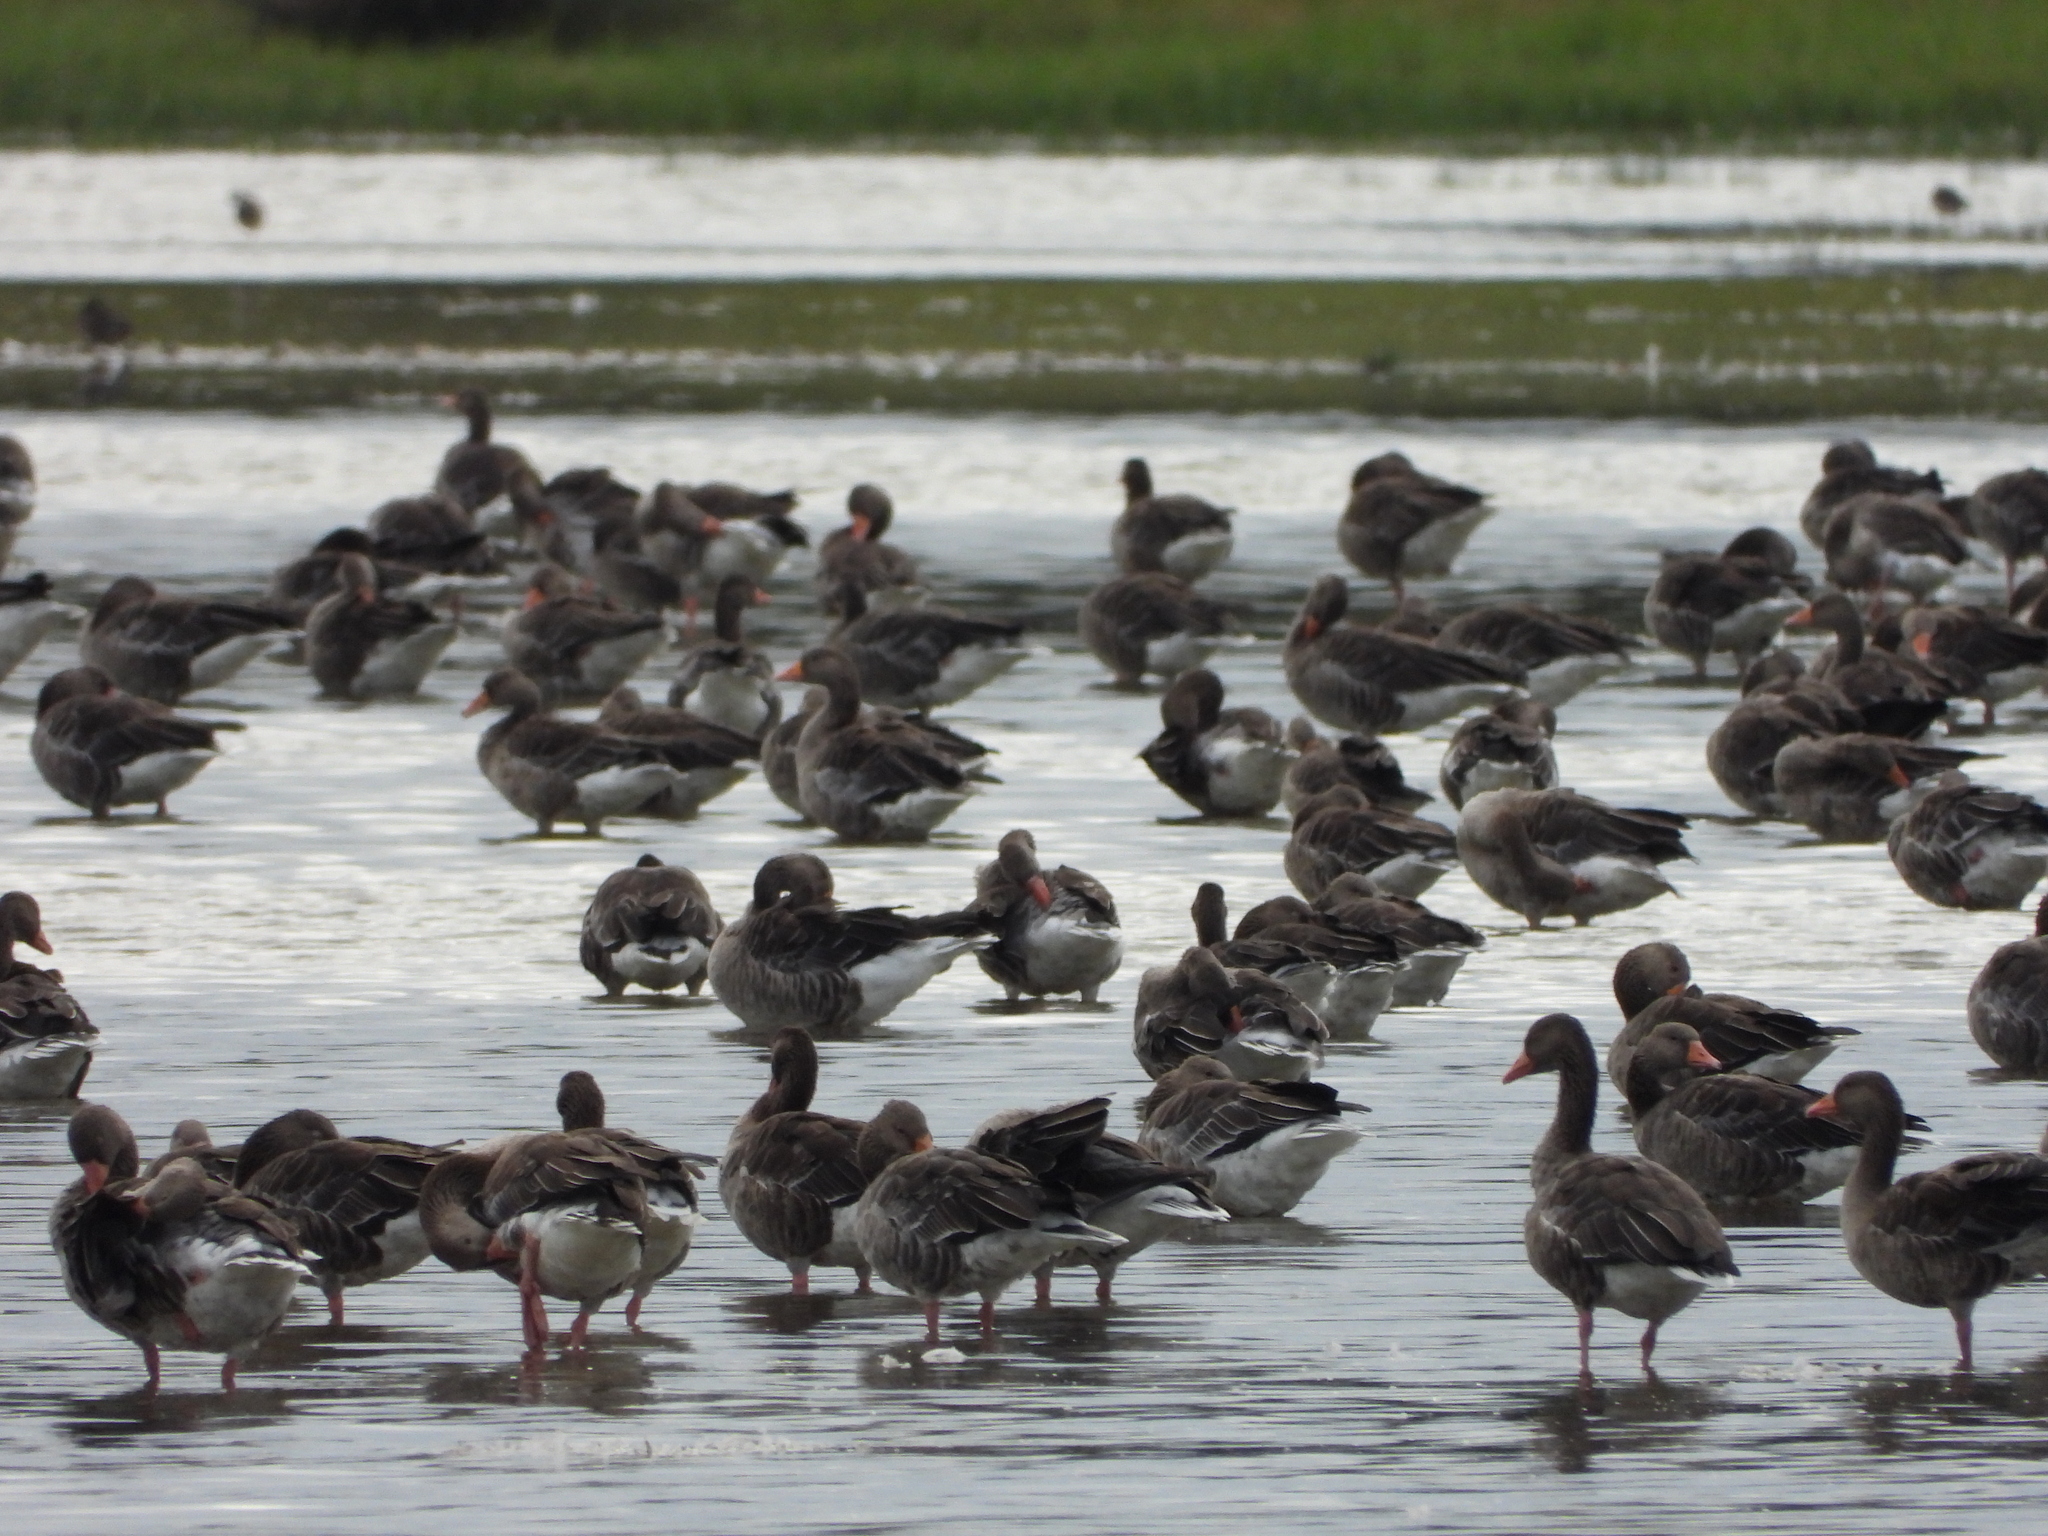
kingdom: Animalia
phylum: Chordata
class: Aves
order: Anseriformes
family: Anatidae
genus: Anser
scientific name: Anser anser
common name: Greylag goose
